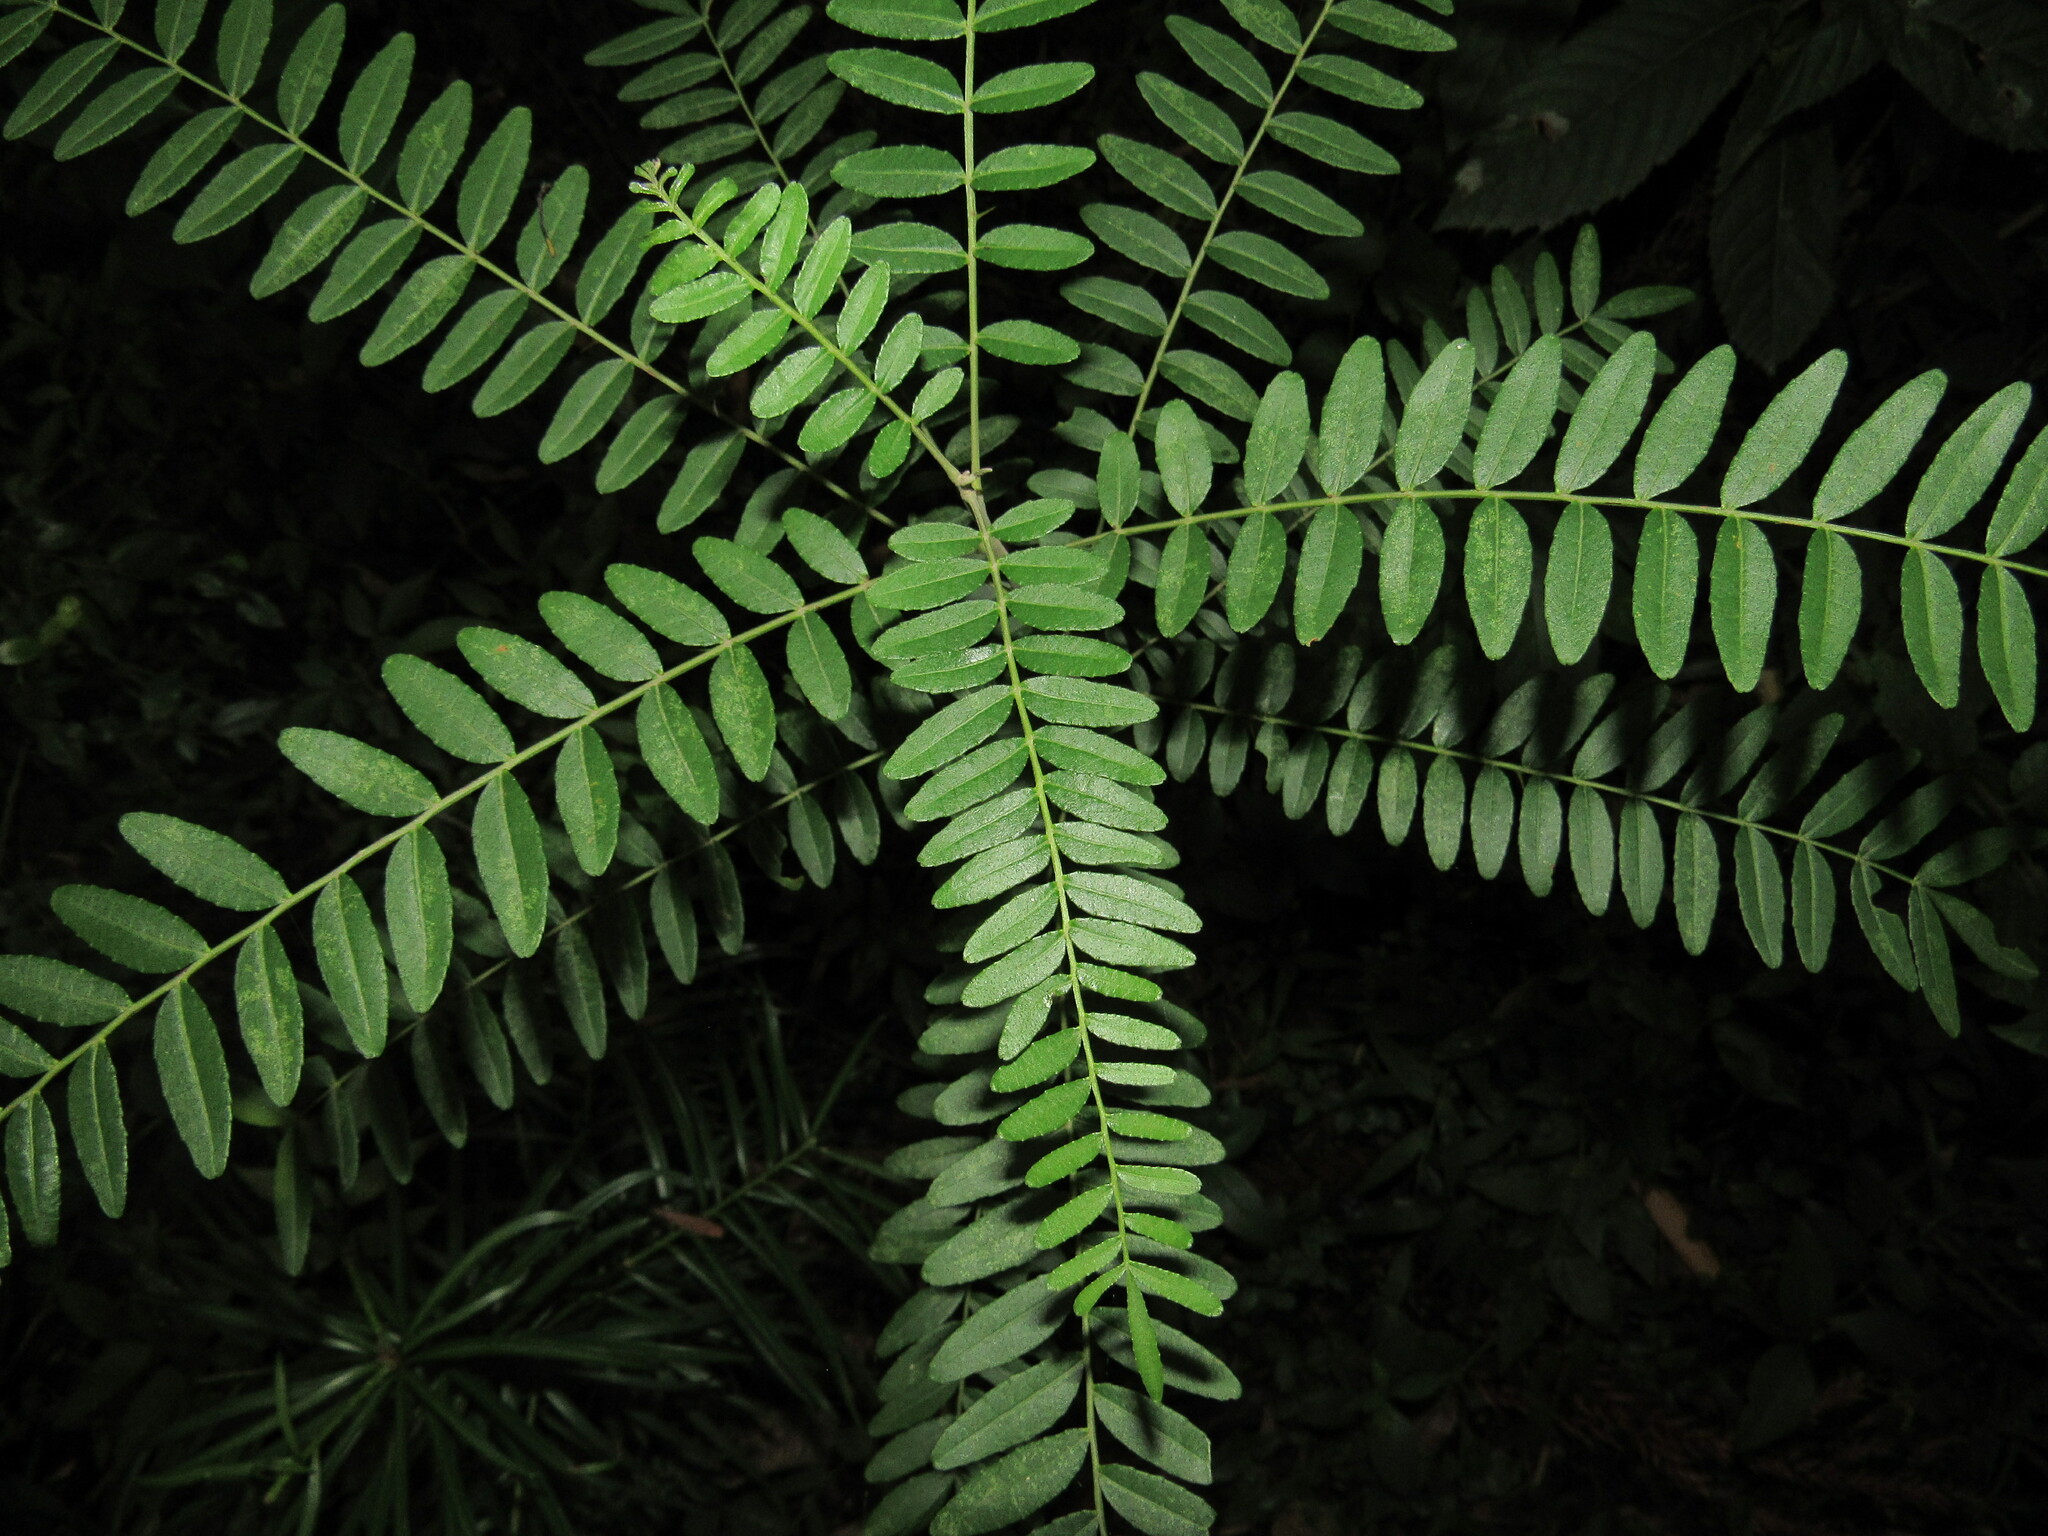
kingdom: Plantae
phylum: Tracheophyta
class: Magnoliopsida
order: Sapindales
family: Rutaceae
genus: Zanthoxylum
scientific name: Zanthoxylum kleinii
